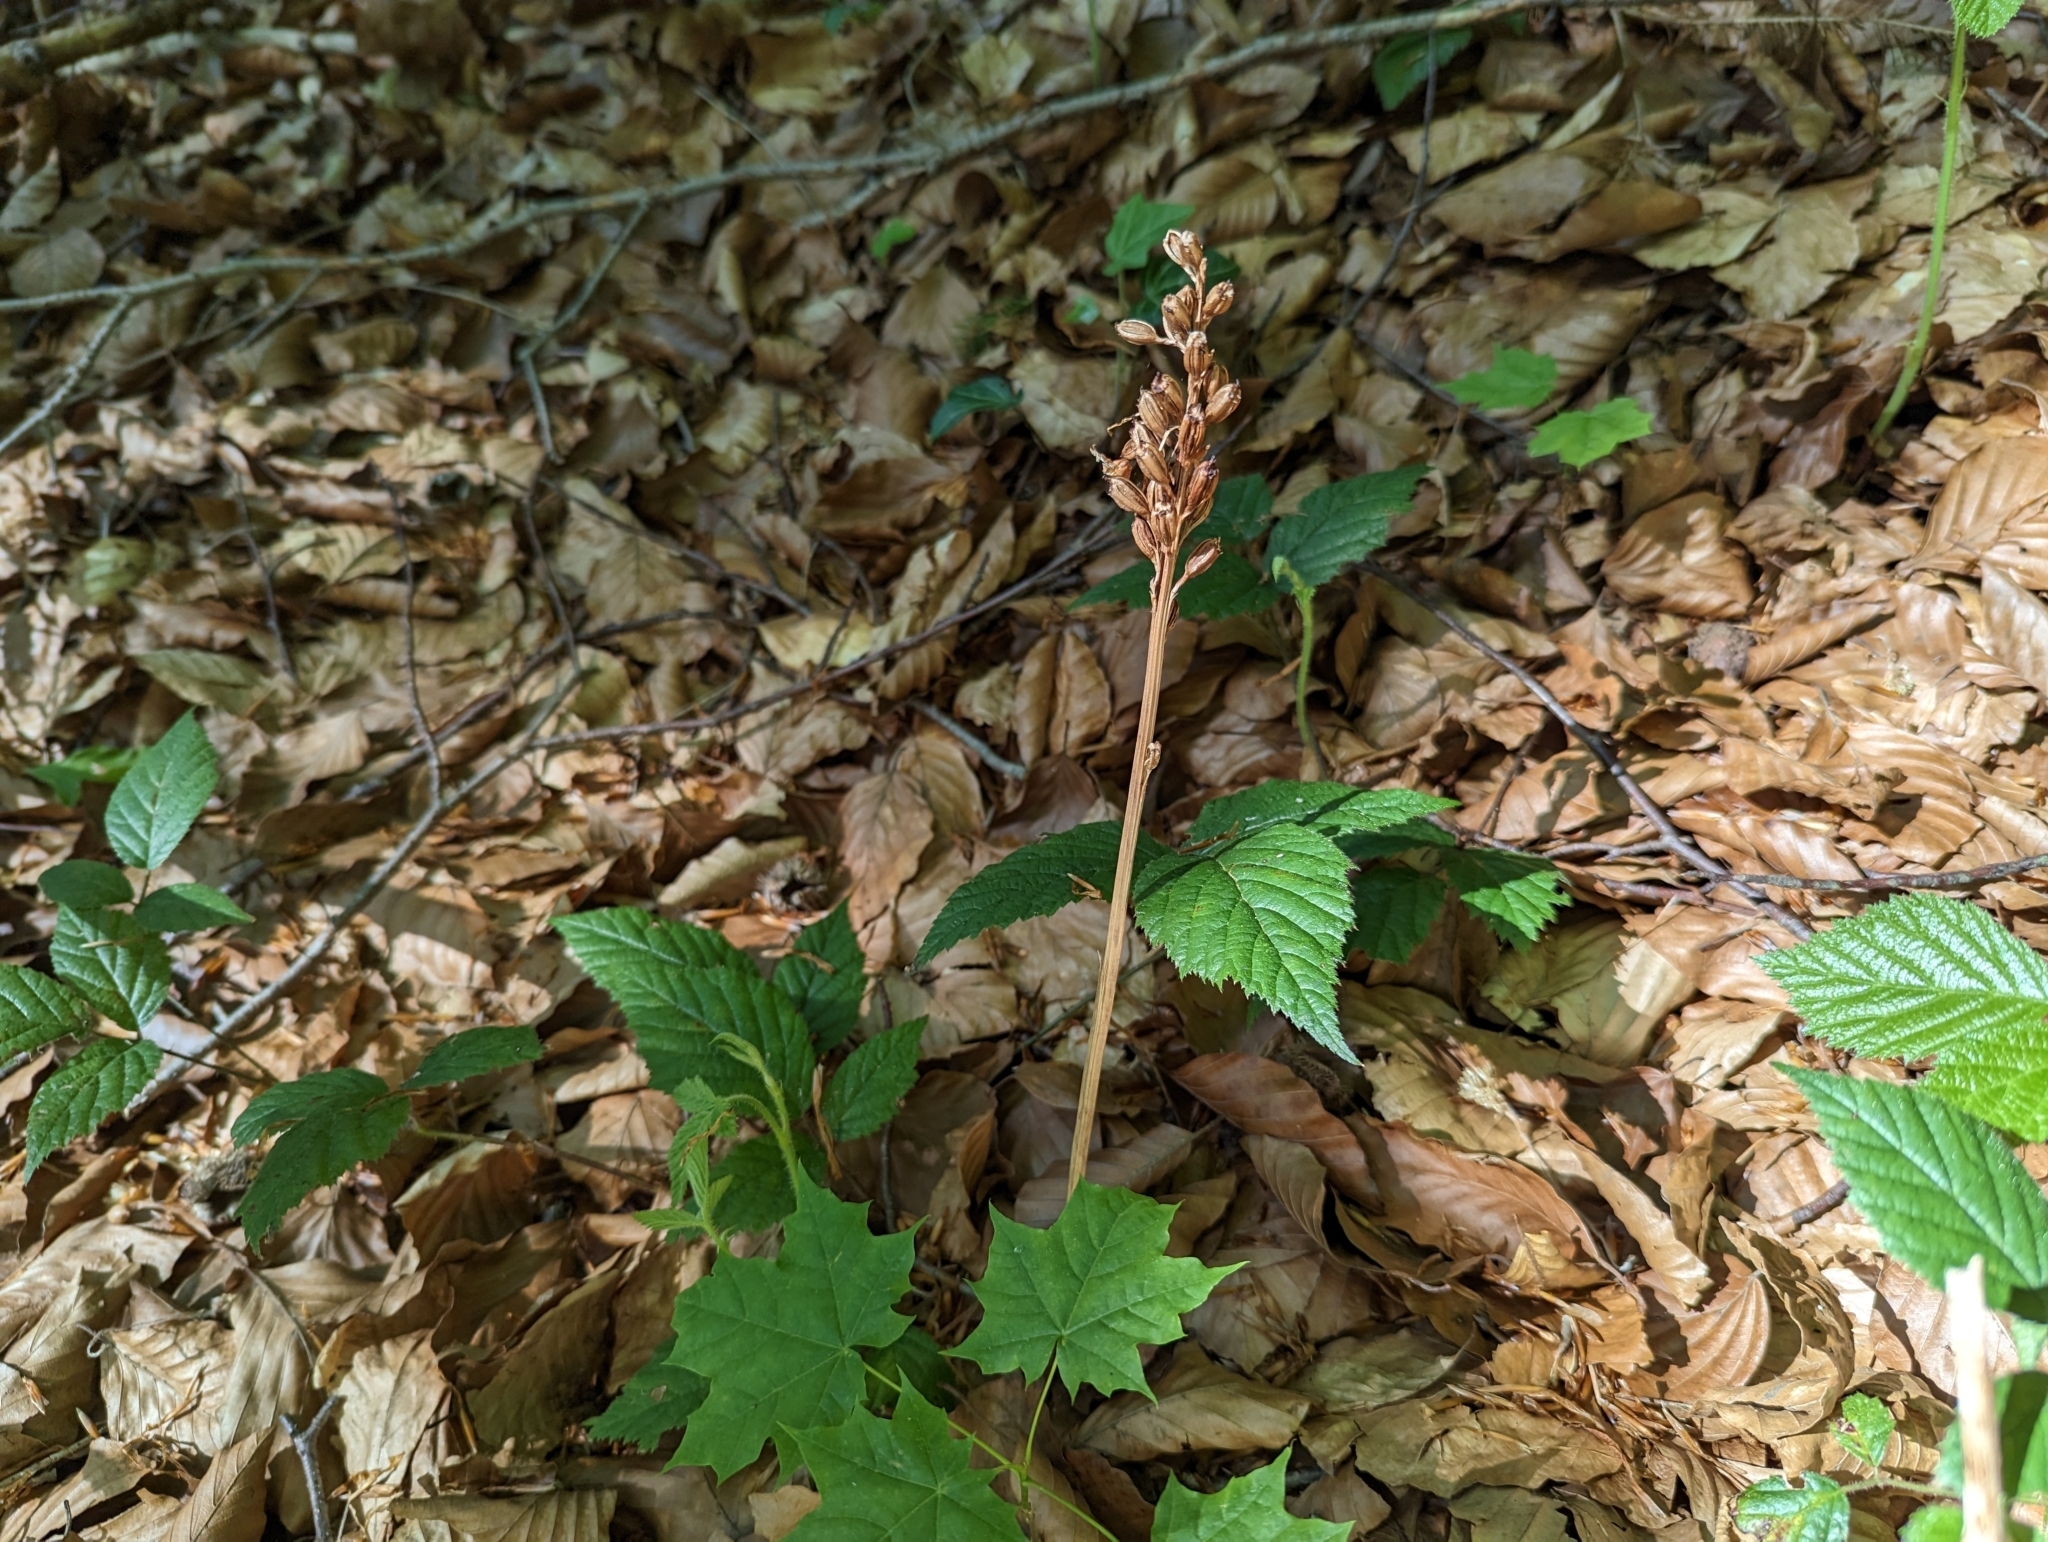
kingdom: Plantae
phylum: Tracheophyta
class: Liliopsida
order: Asparagales
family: Orchidaceae
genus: Neottia
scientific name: Neottia nidus-avis
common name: Bird's-nest orchid
